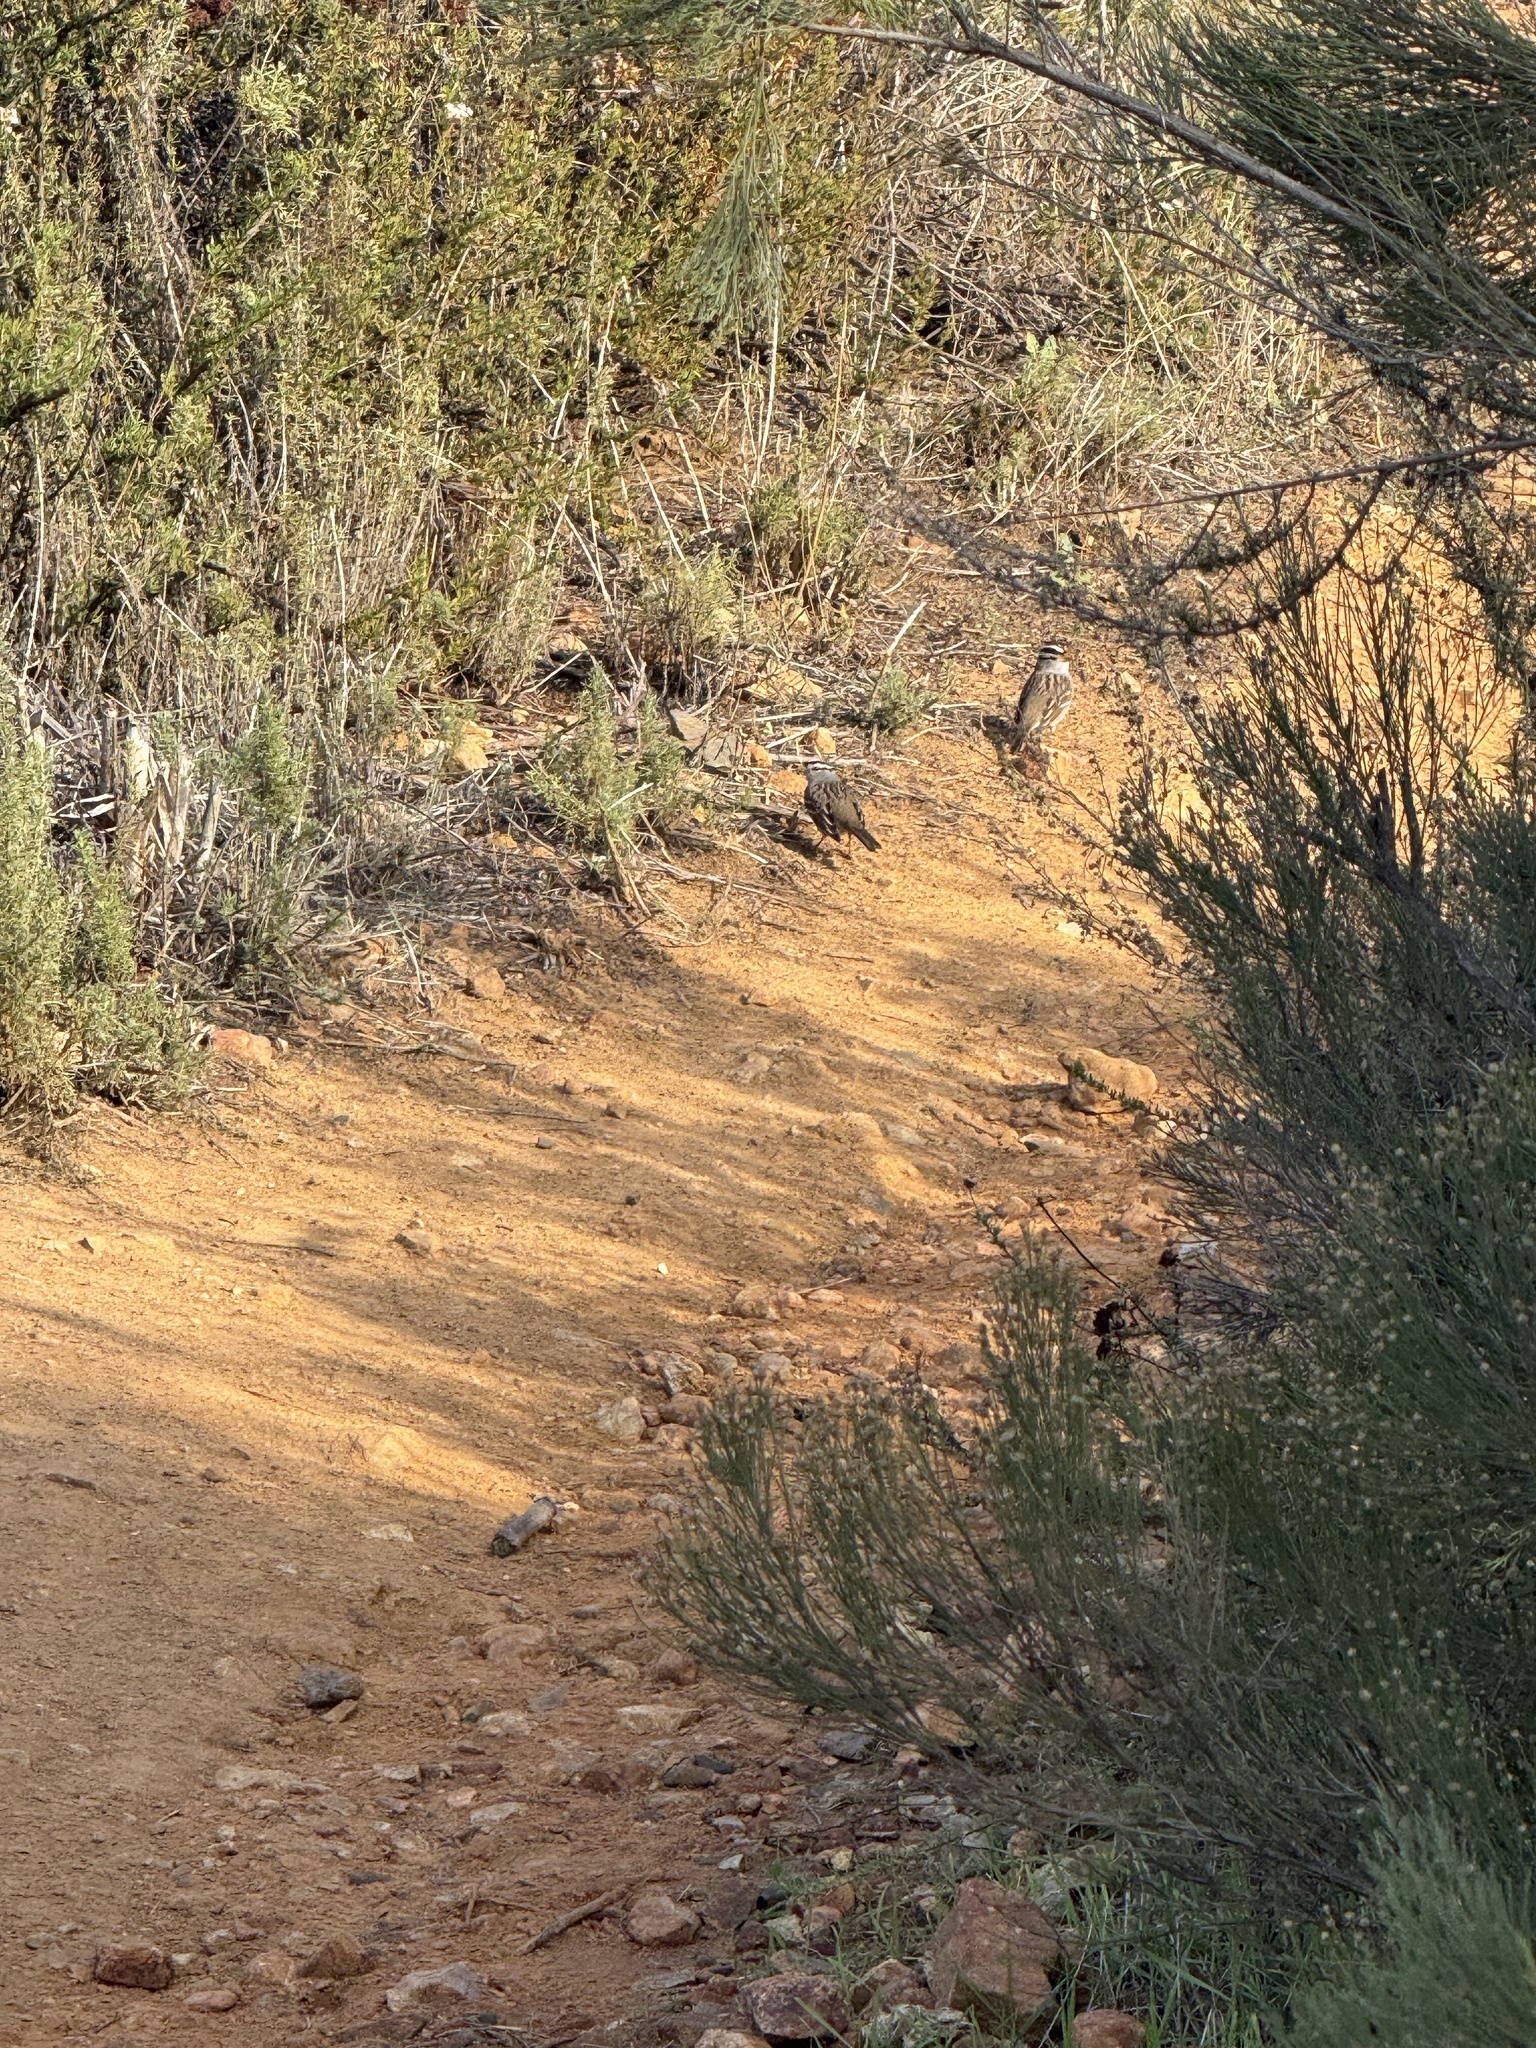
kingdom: Animalia
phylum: Chordata
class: Aves
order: Passeriformes
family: Passerellidae
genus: Zonotrichia
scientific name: Zonotrichia leucophrys
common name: White-crowned sparrow
